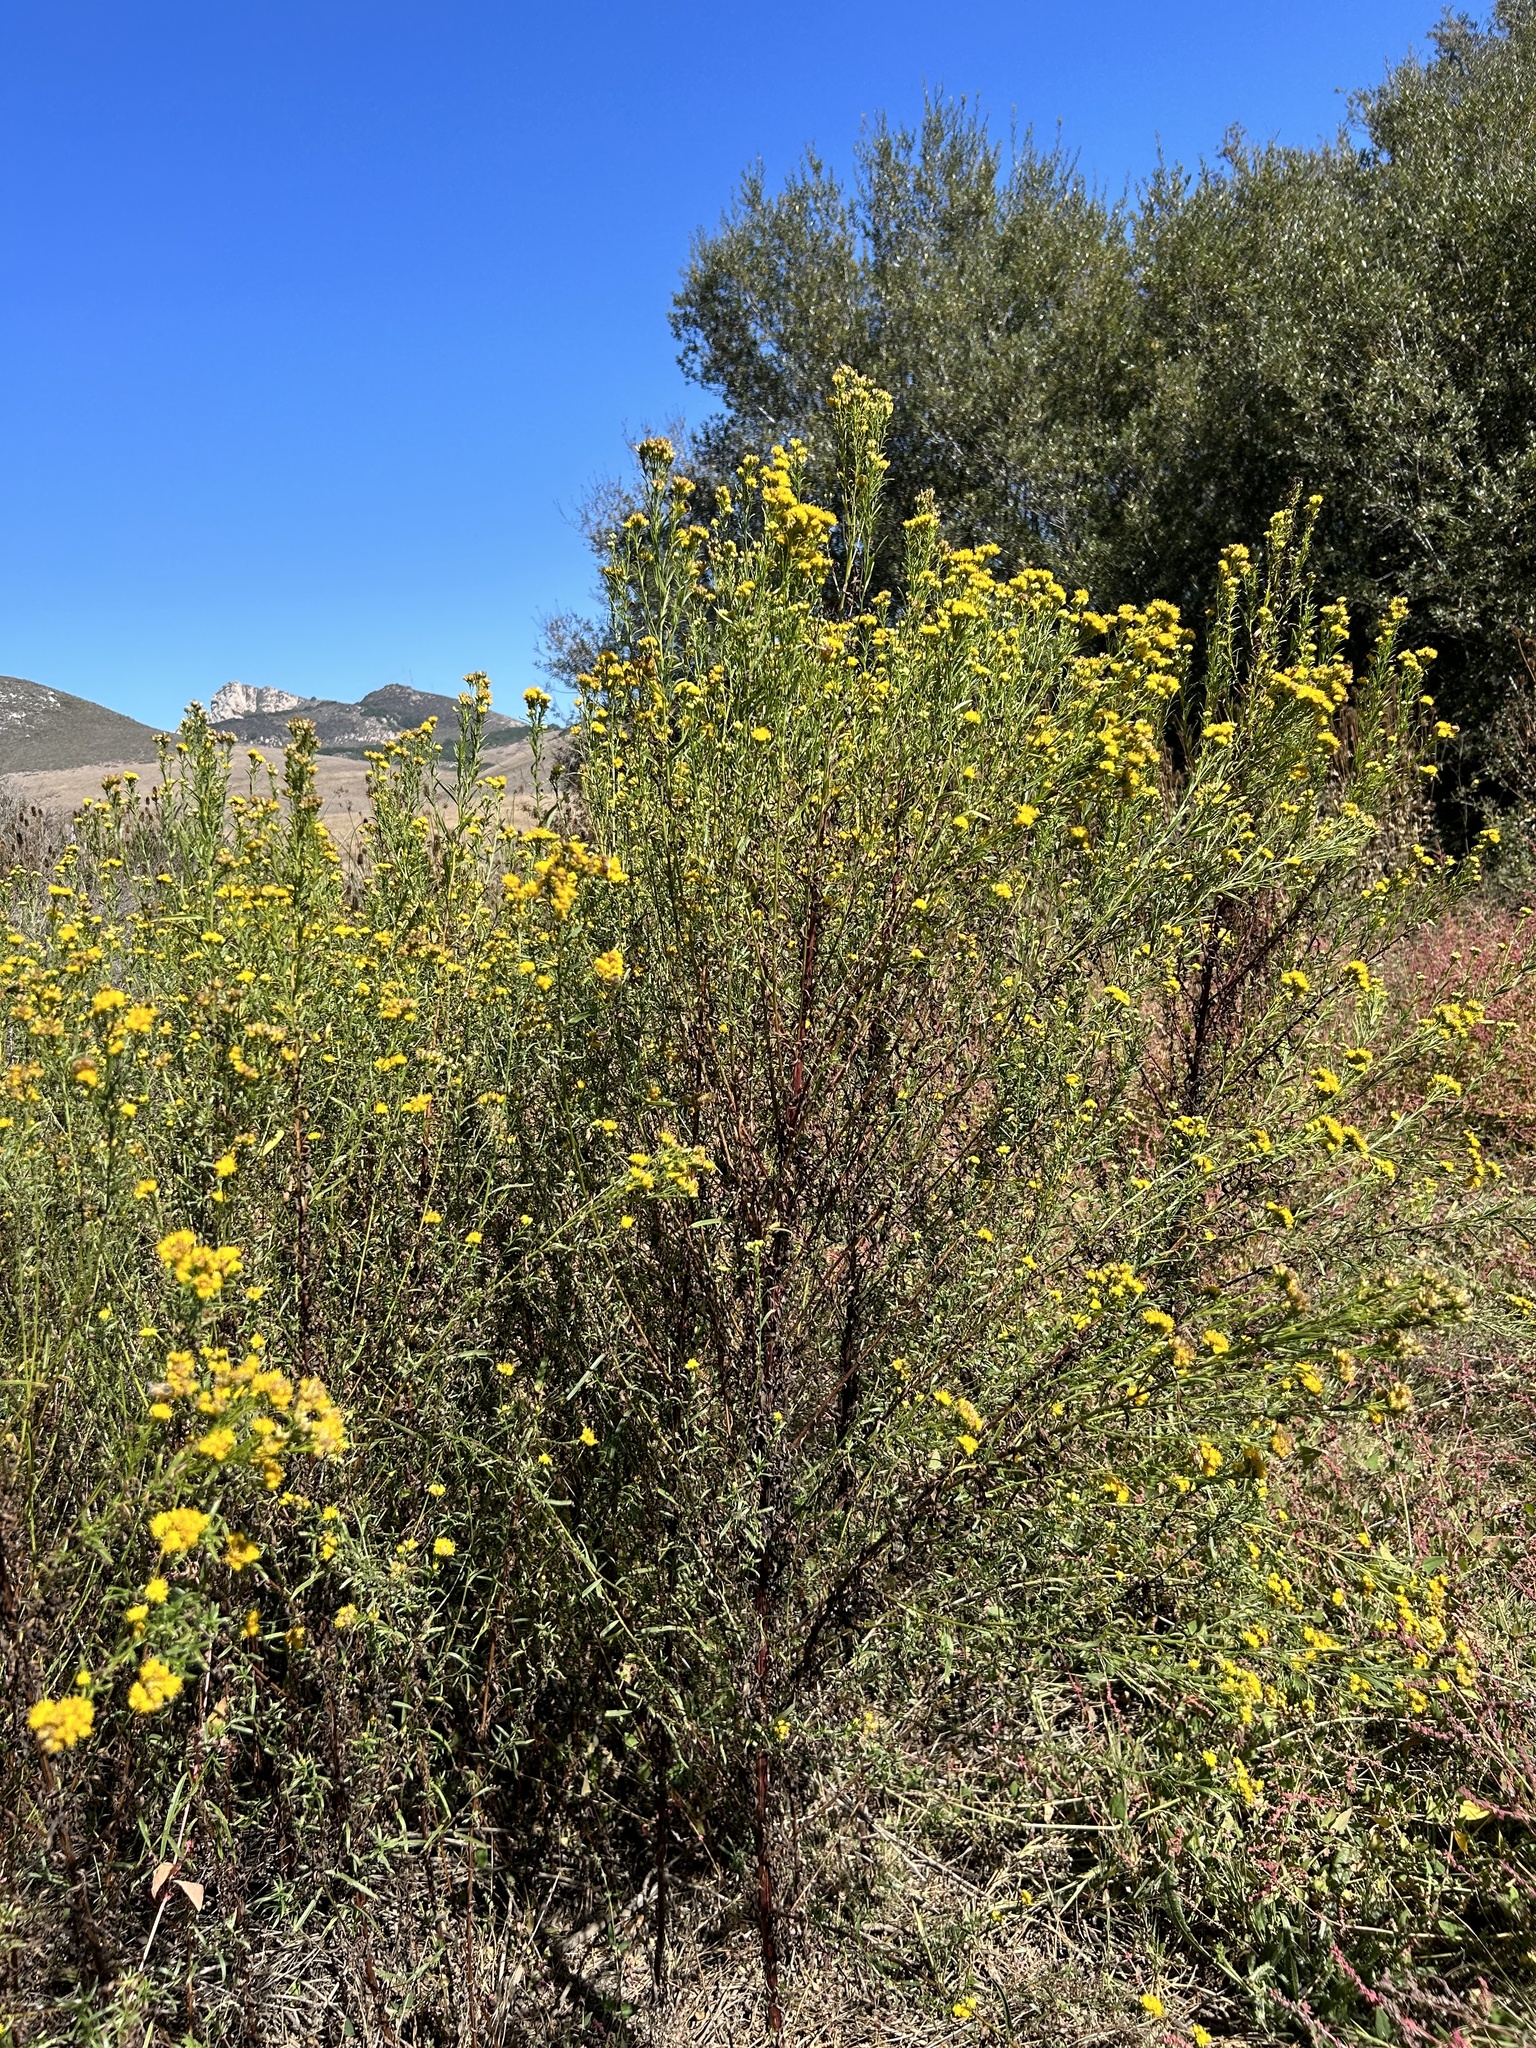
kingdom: Plantae
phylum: Tracheophyta
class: Magnoliopsida
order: Asterales
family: Asteraceae
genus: Euthamia
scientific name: Euthamia occidentalis
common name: Western goldentop
